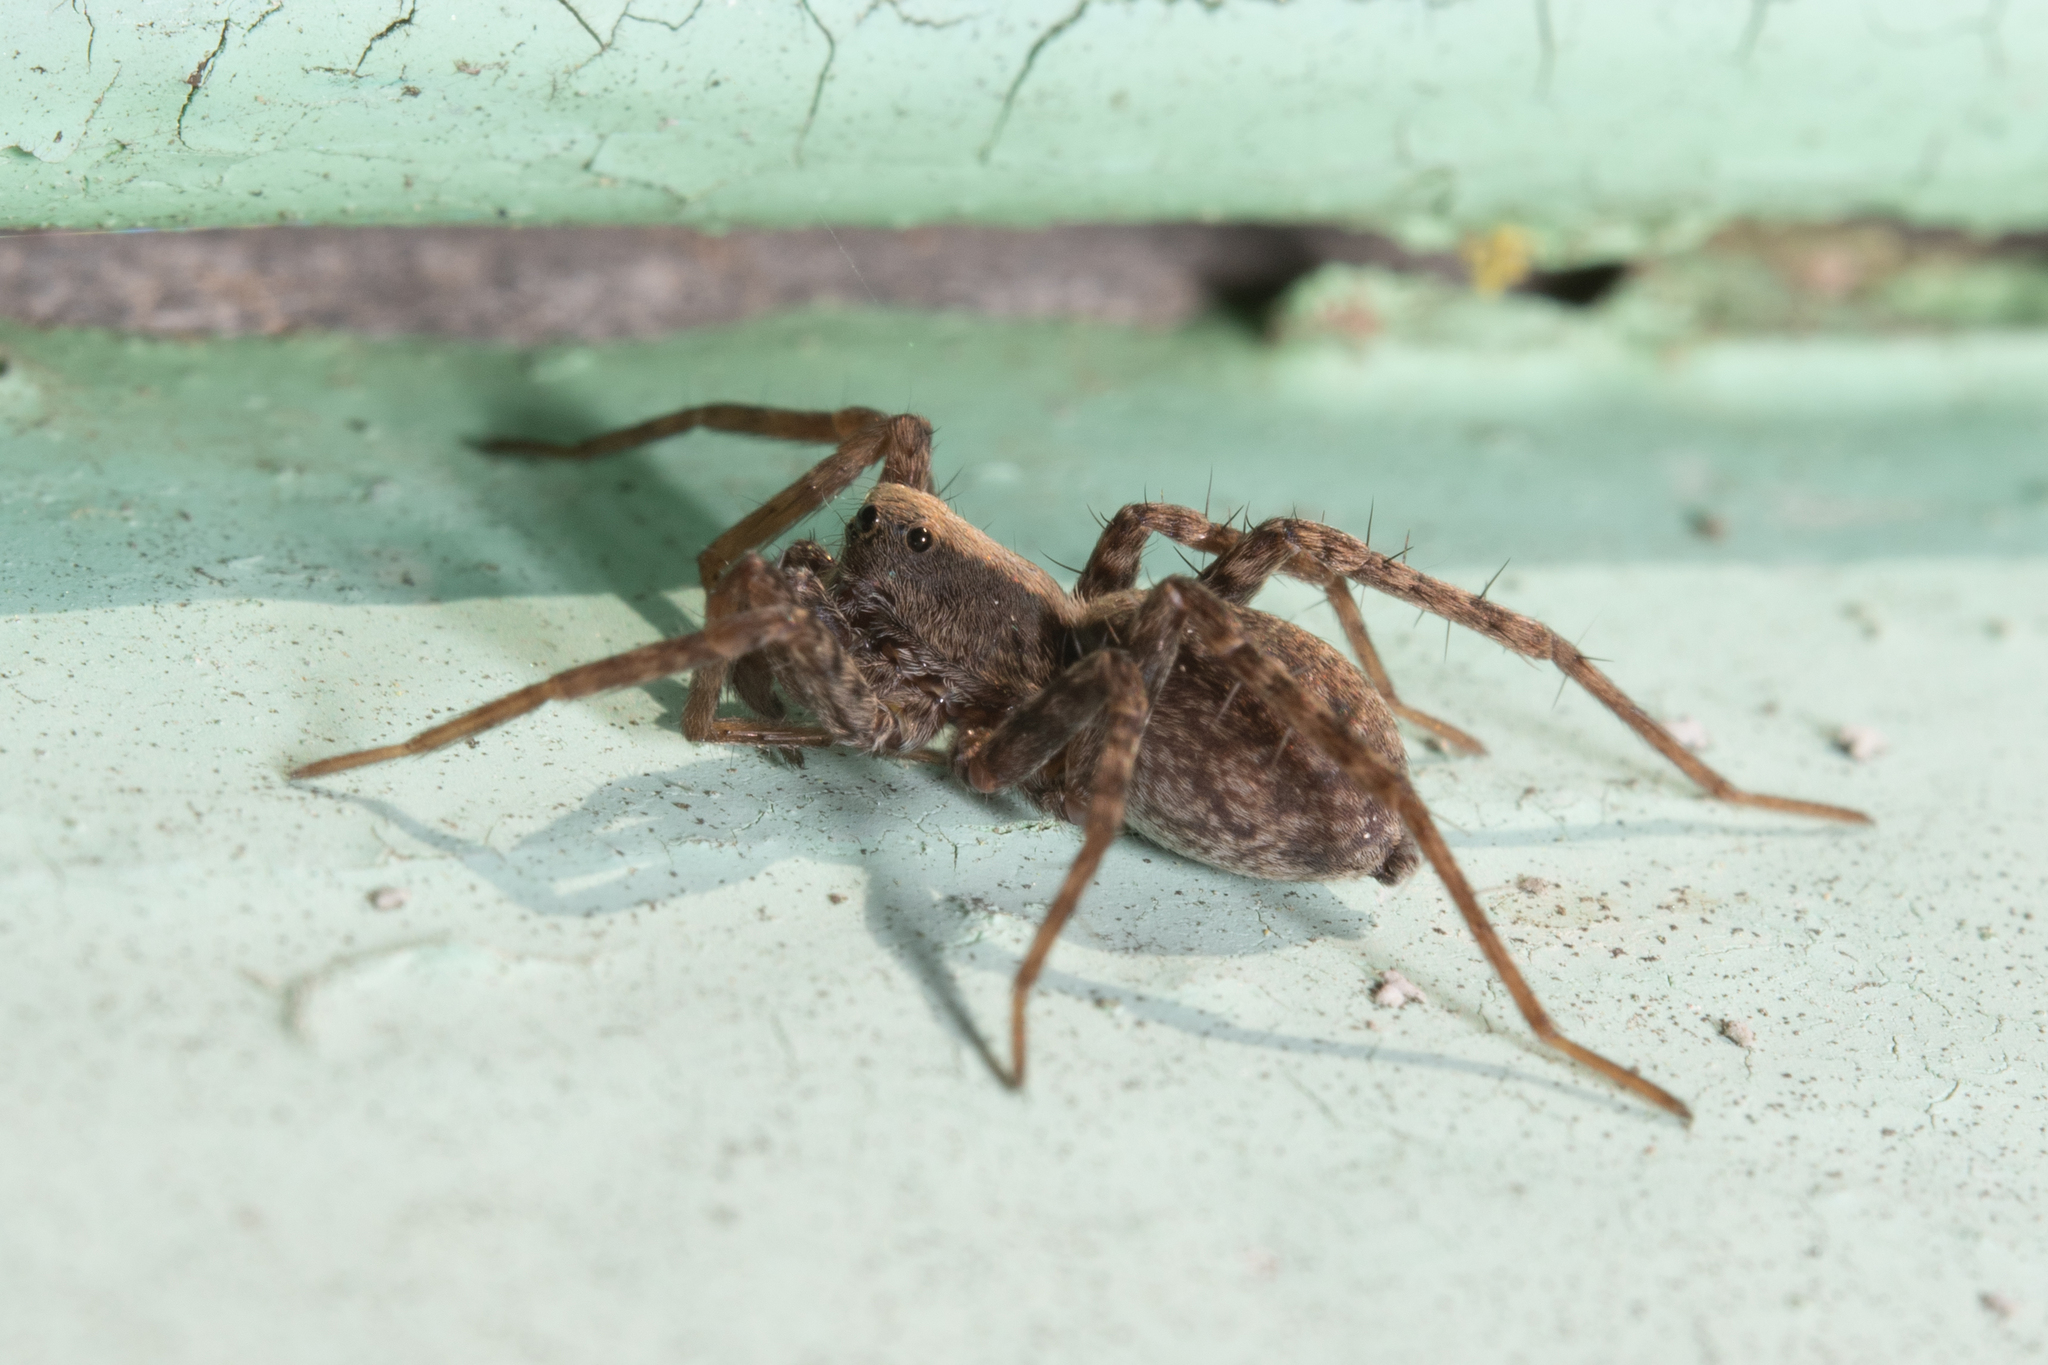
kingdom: Animalia
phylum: Arthropoda
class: Arachnida
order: Araneae
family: Lycosidae
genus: Pardosa
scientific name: Pardosa
